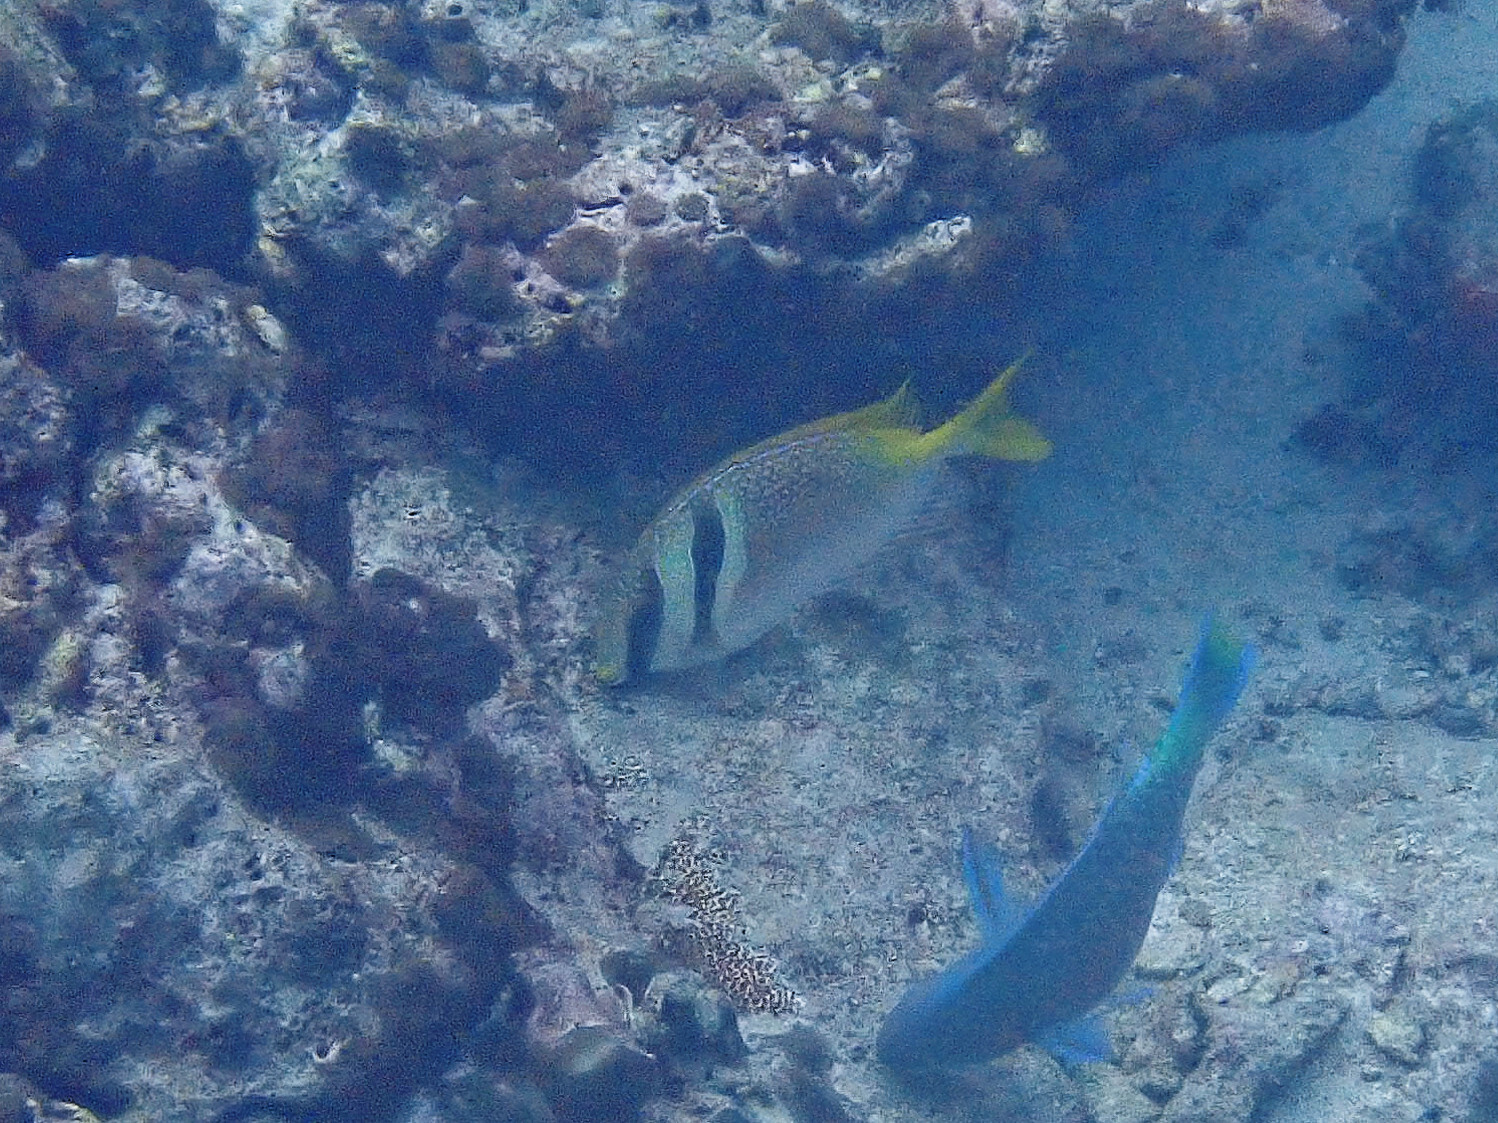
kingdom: Animalia
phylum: Chordata
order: Perciformes
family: Siganidae
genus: Siganus
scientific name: Siganus virgatus
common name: Barhead spinefoot
